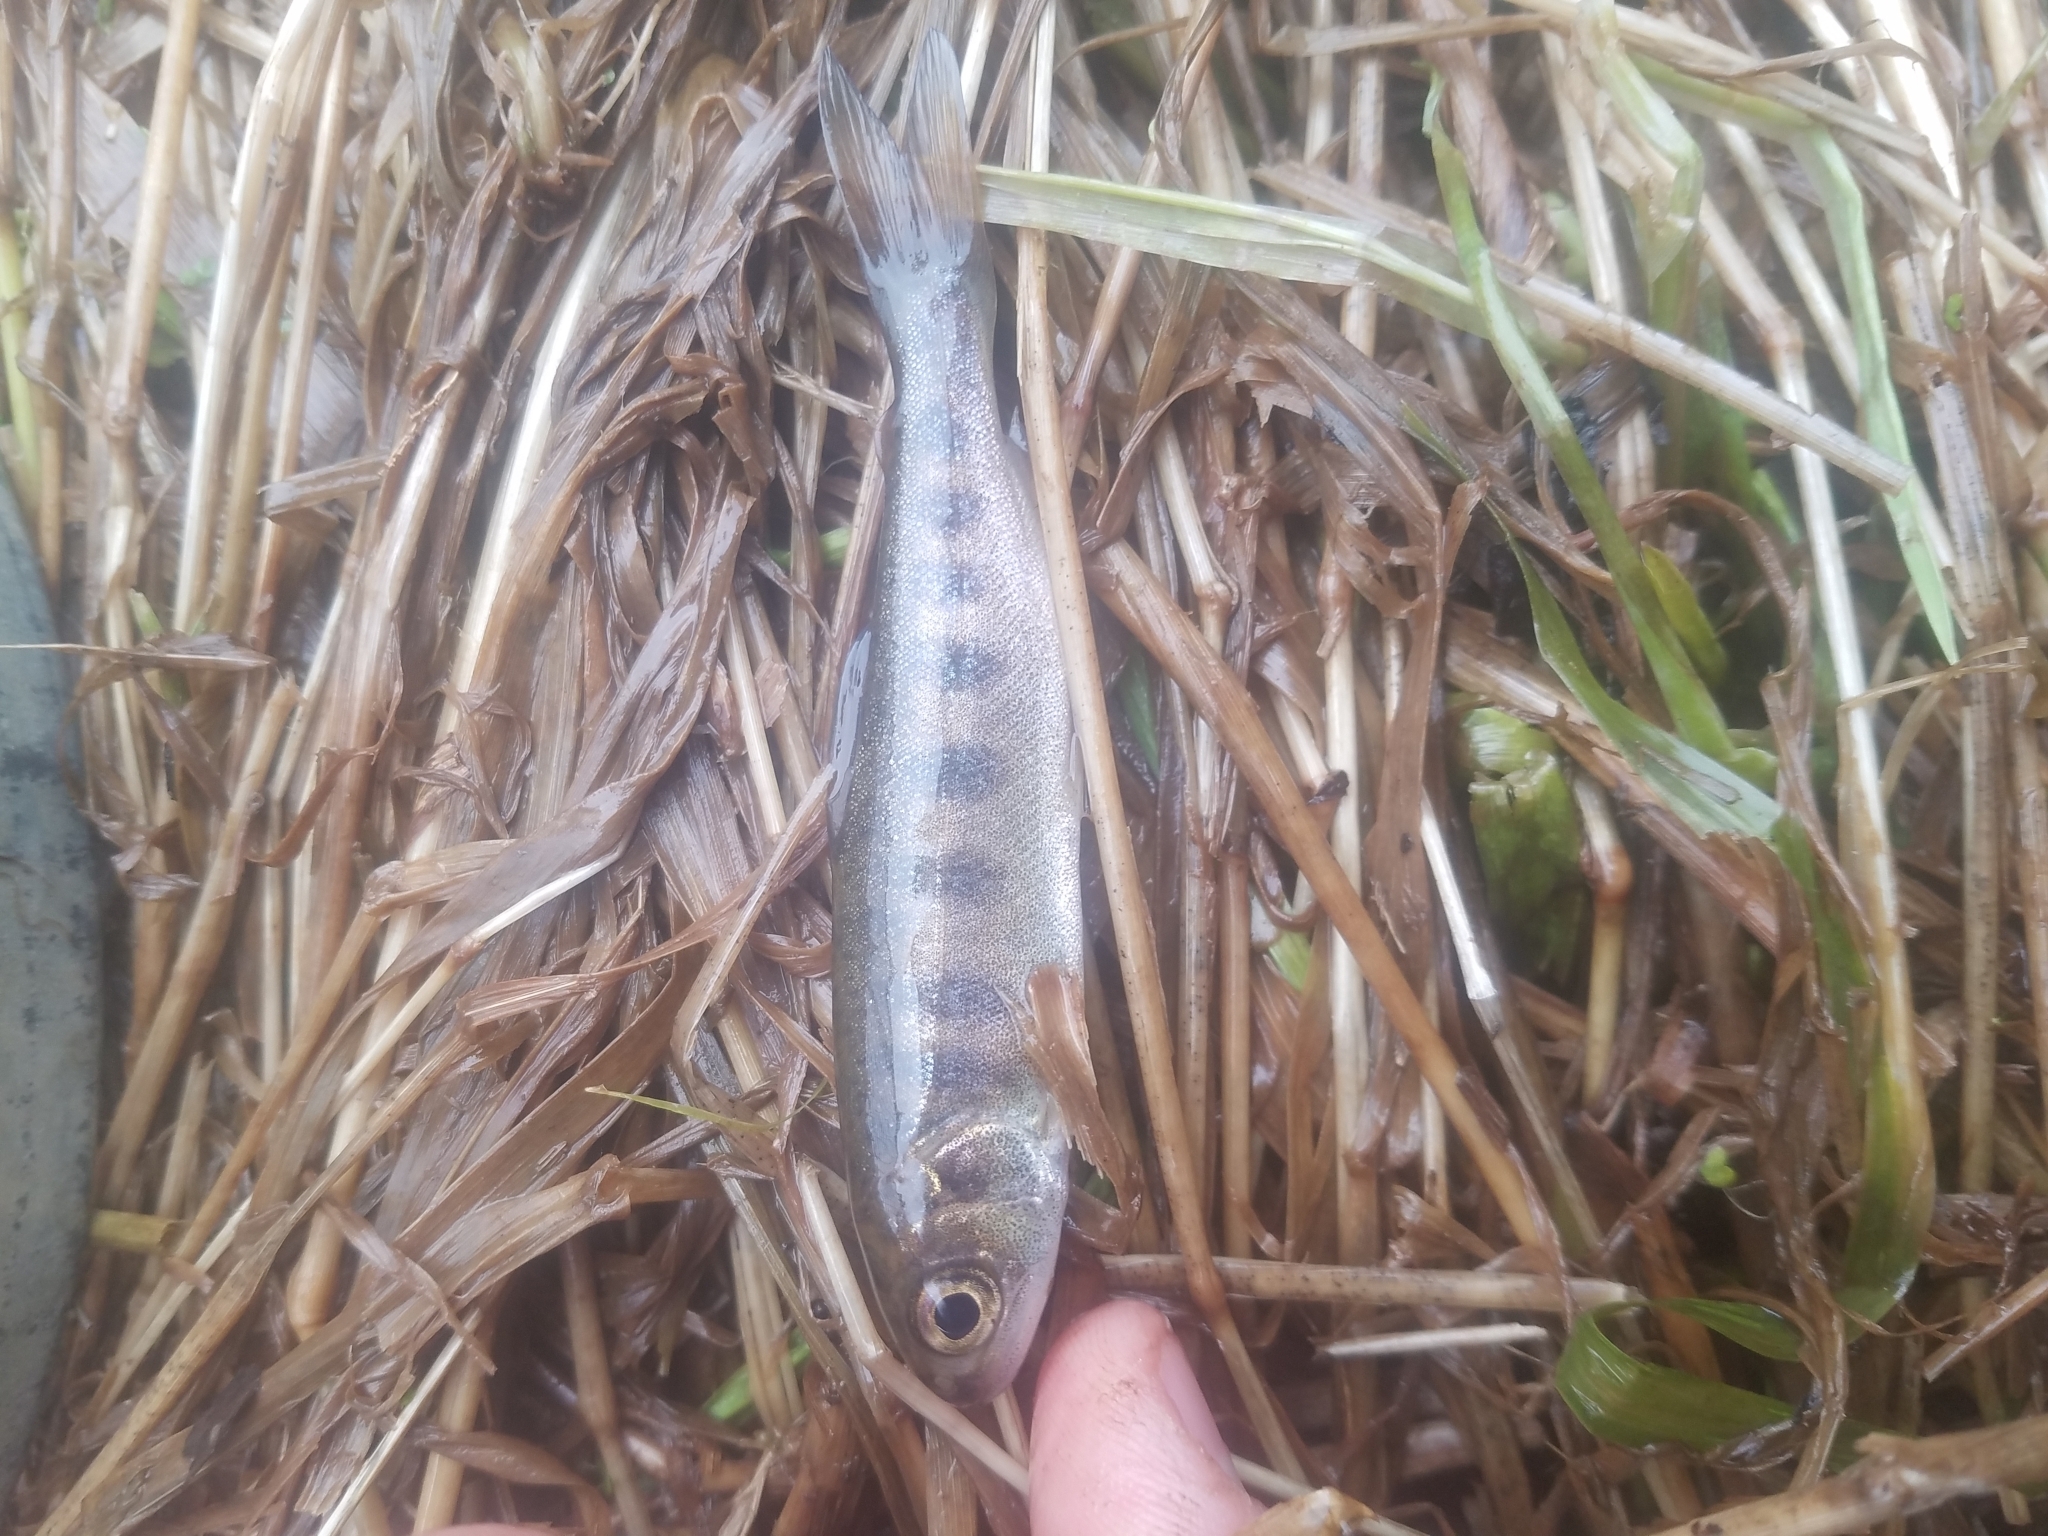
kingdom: Animalia
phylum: Chordata
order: Salmoniformes
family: Salmonidae
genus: Oncorhynchus
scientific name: Oncorhynchus kisutch
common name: Coho salmon
